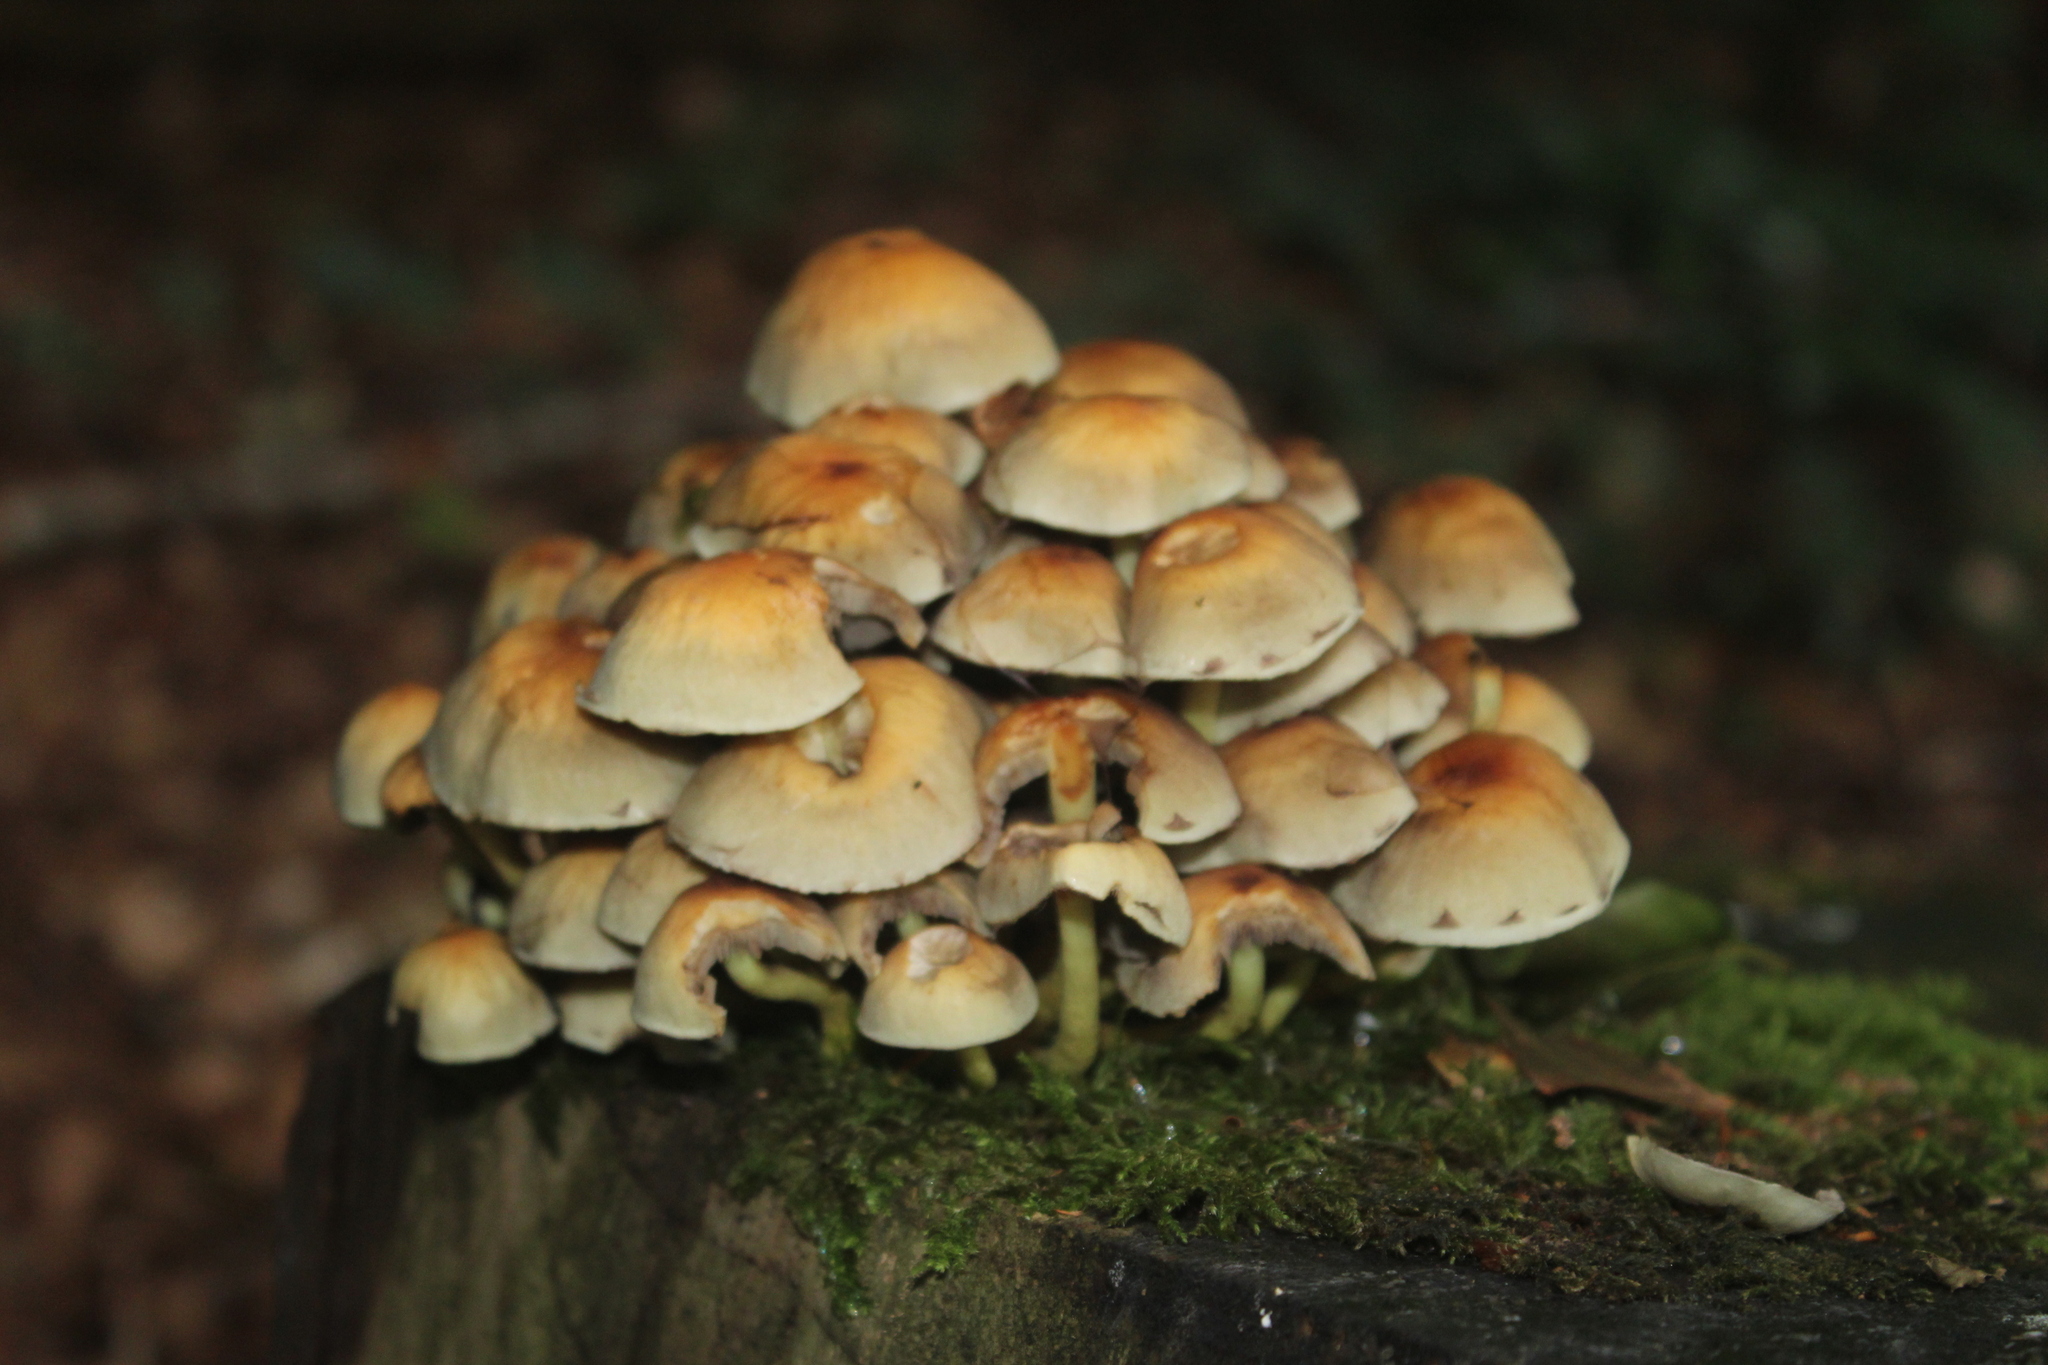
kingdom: Fungi
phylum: Basidiomycota
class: Agaricomycetes
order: Agaricales
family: Strophariaceae
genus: Hypholoma
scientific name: Hypholoma fasciculare
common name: Sulphur tuft
